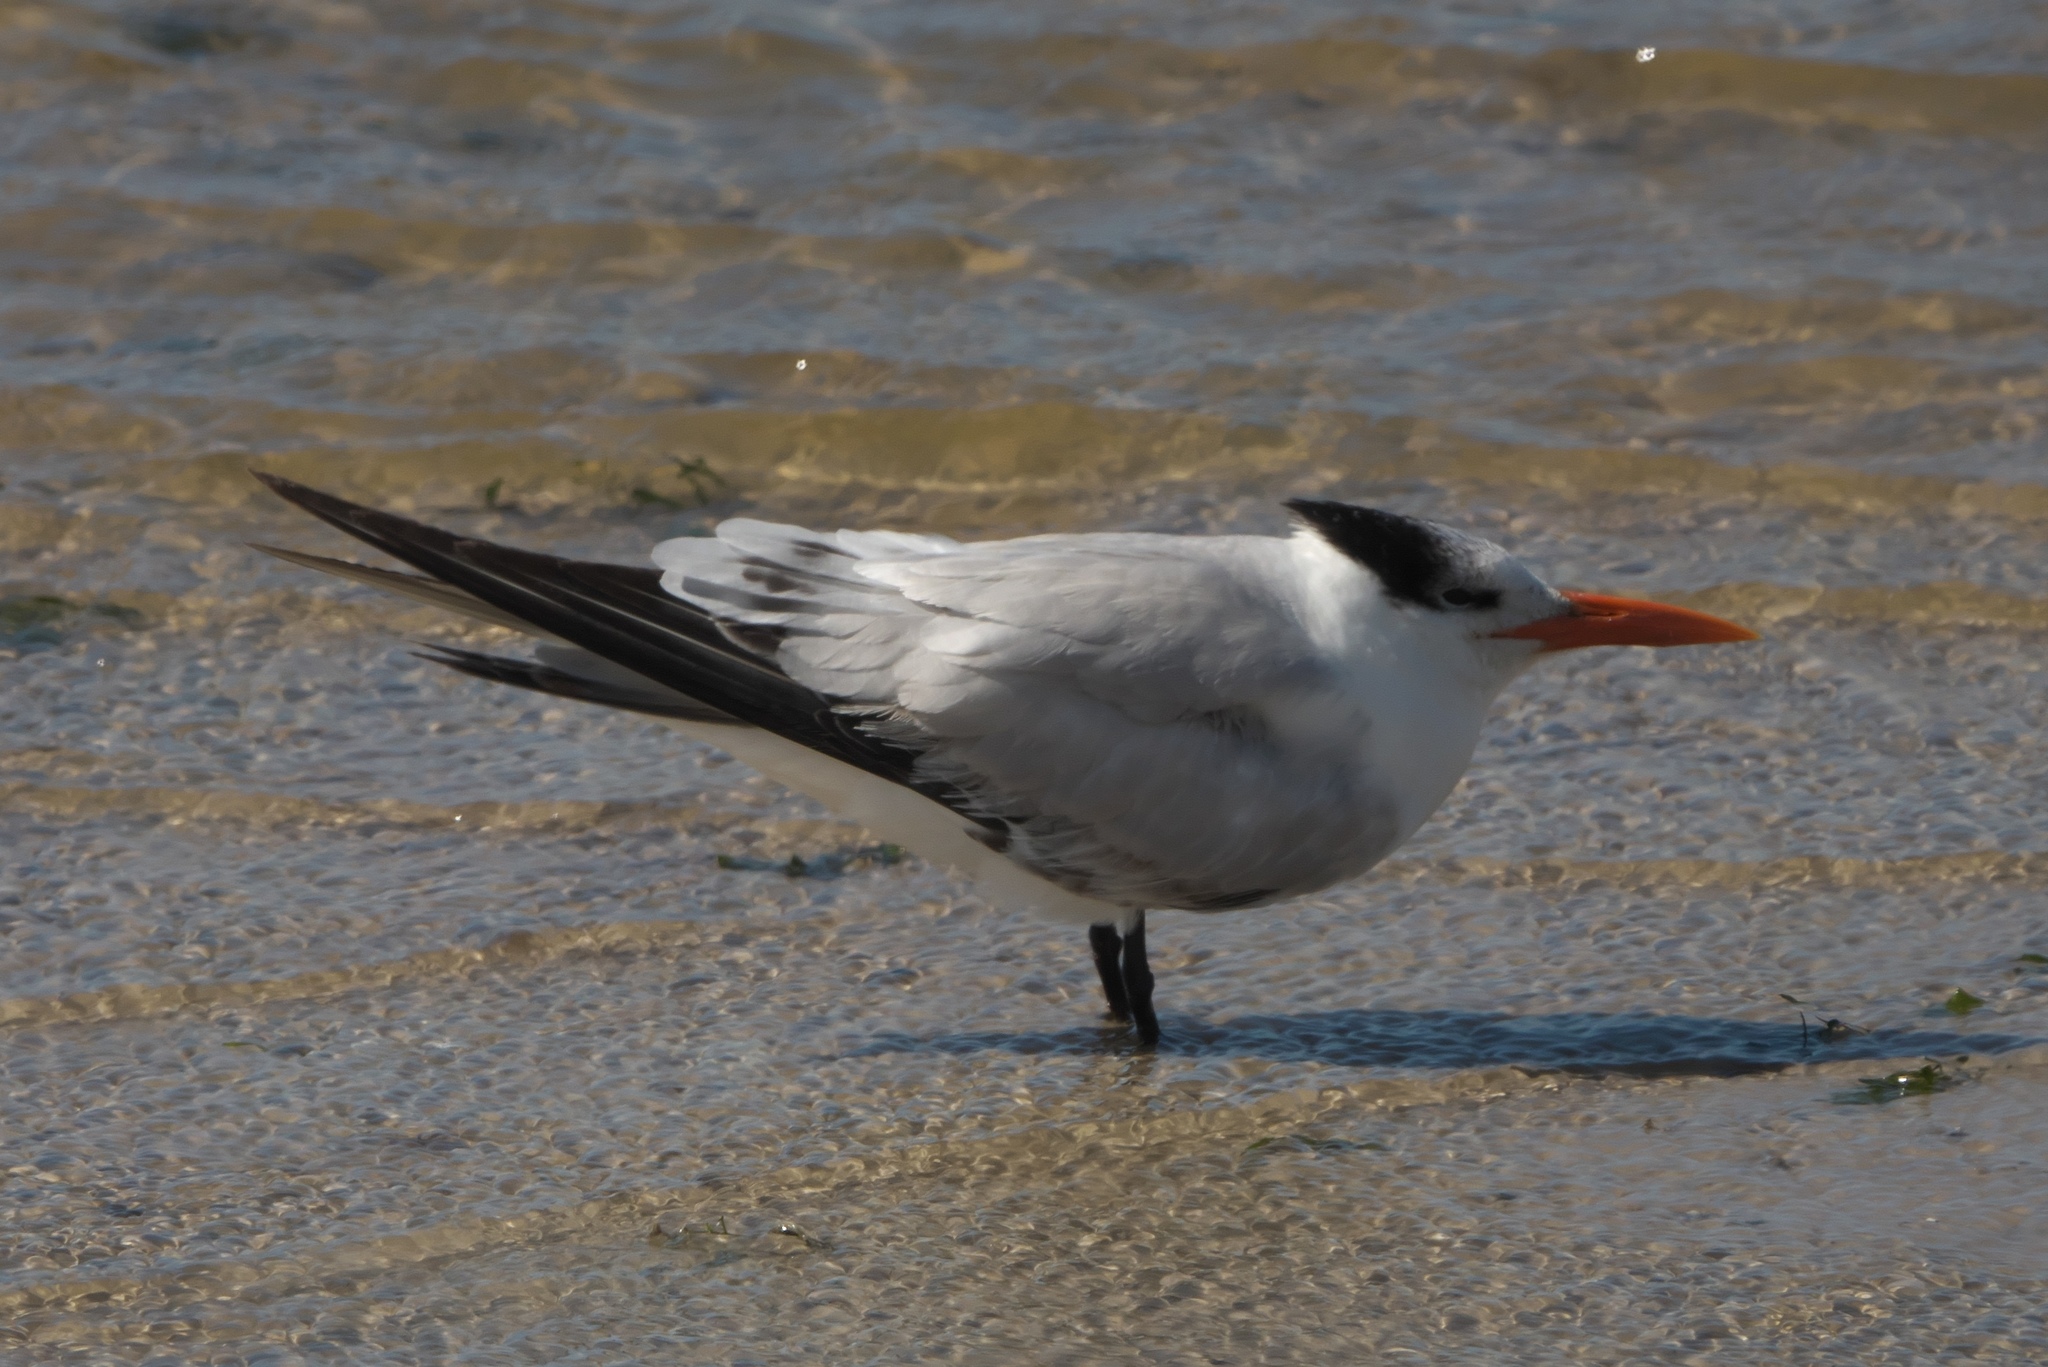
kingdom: Animalia
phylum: Chordata
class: Aves
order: Charadriiformes
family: Laridae
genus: Thalasseus
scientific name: Thalasseus maximus
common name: Royal tern
